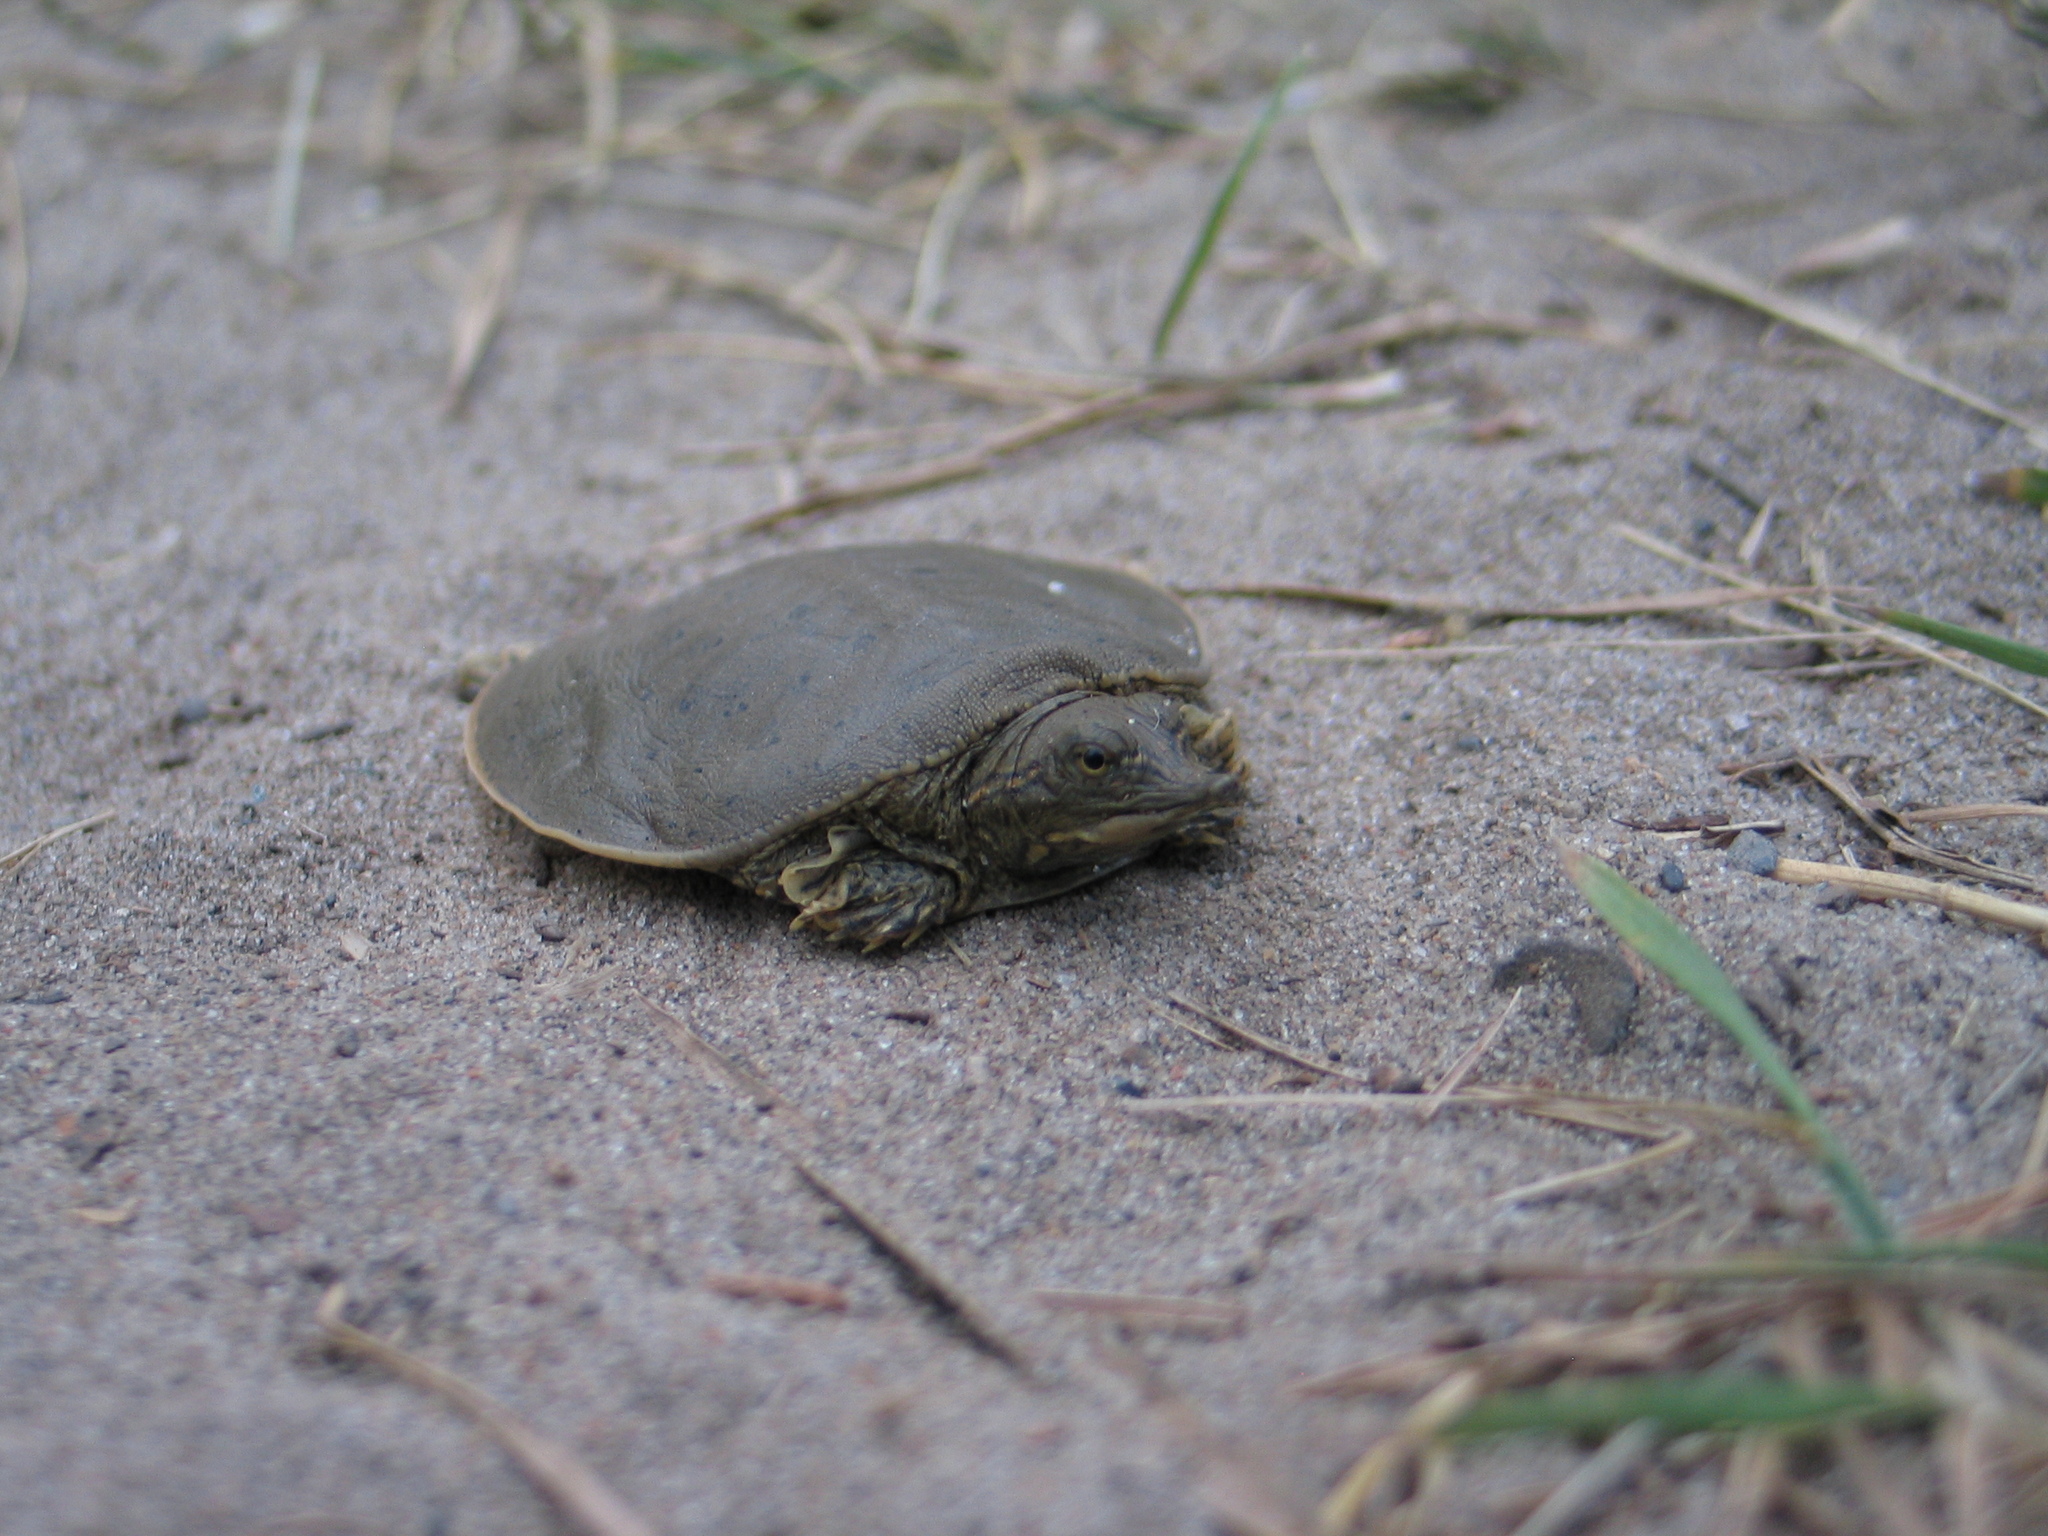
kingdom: Animalia
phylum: Chordata
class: Testudines
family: Trionychidae
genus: Apalone
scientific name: Apalone spinifera
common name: Spiny softshell turtle
